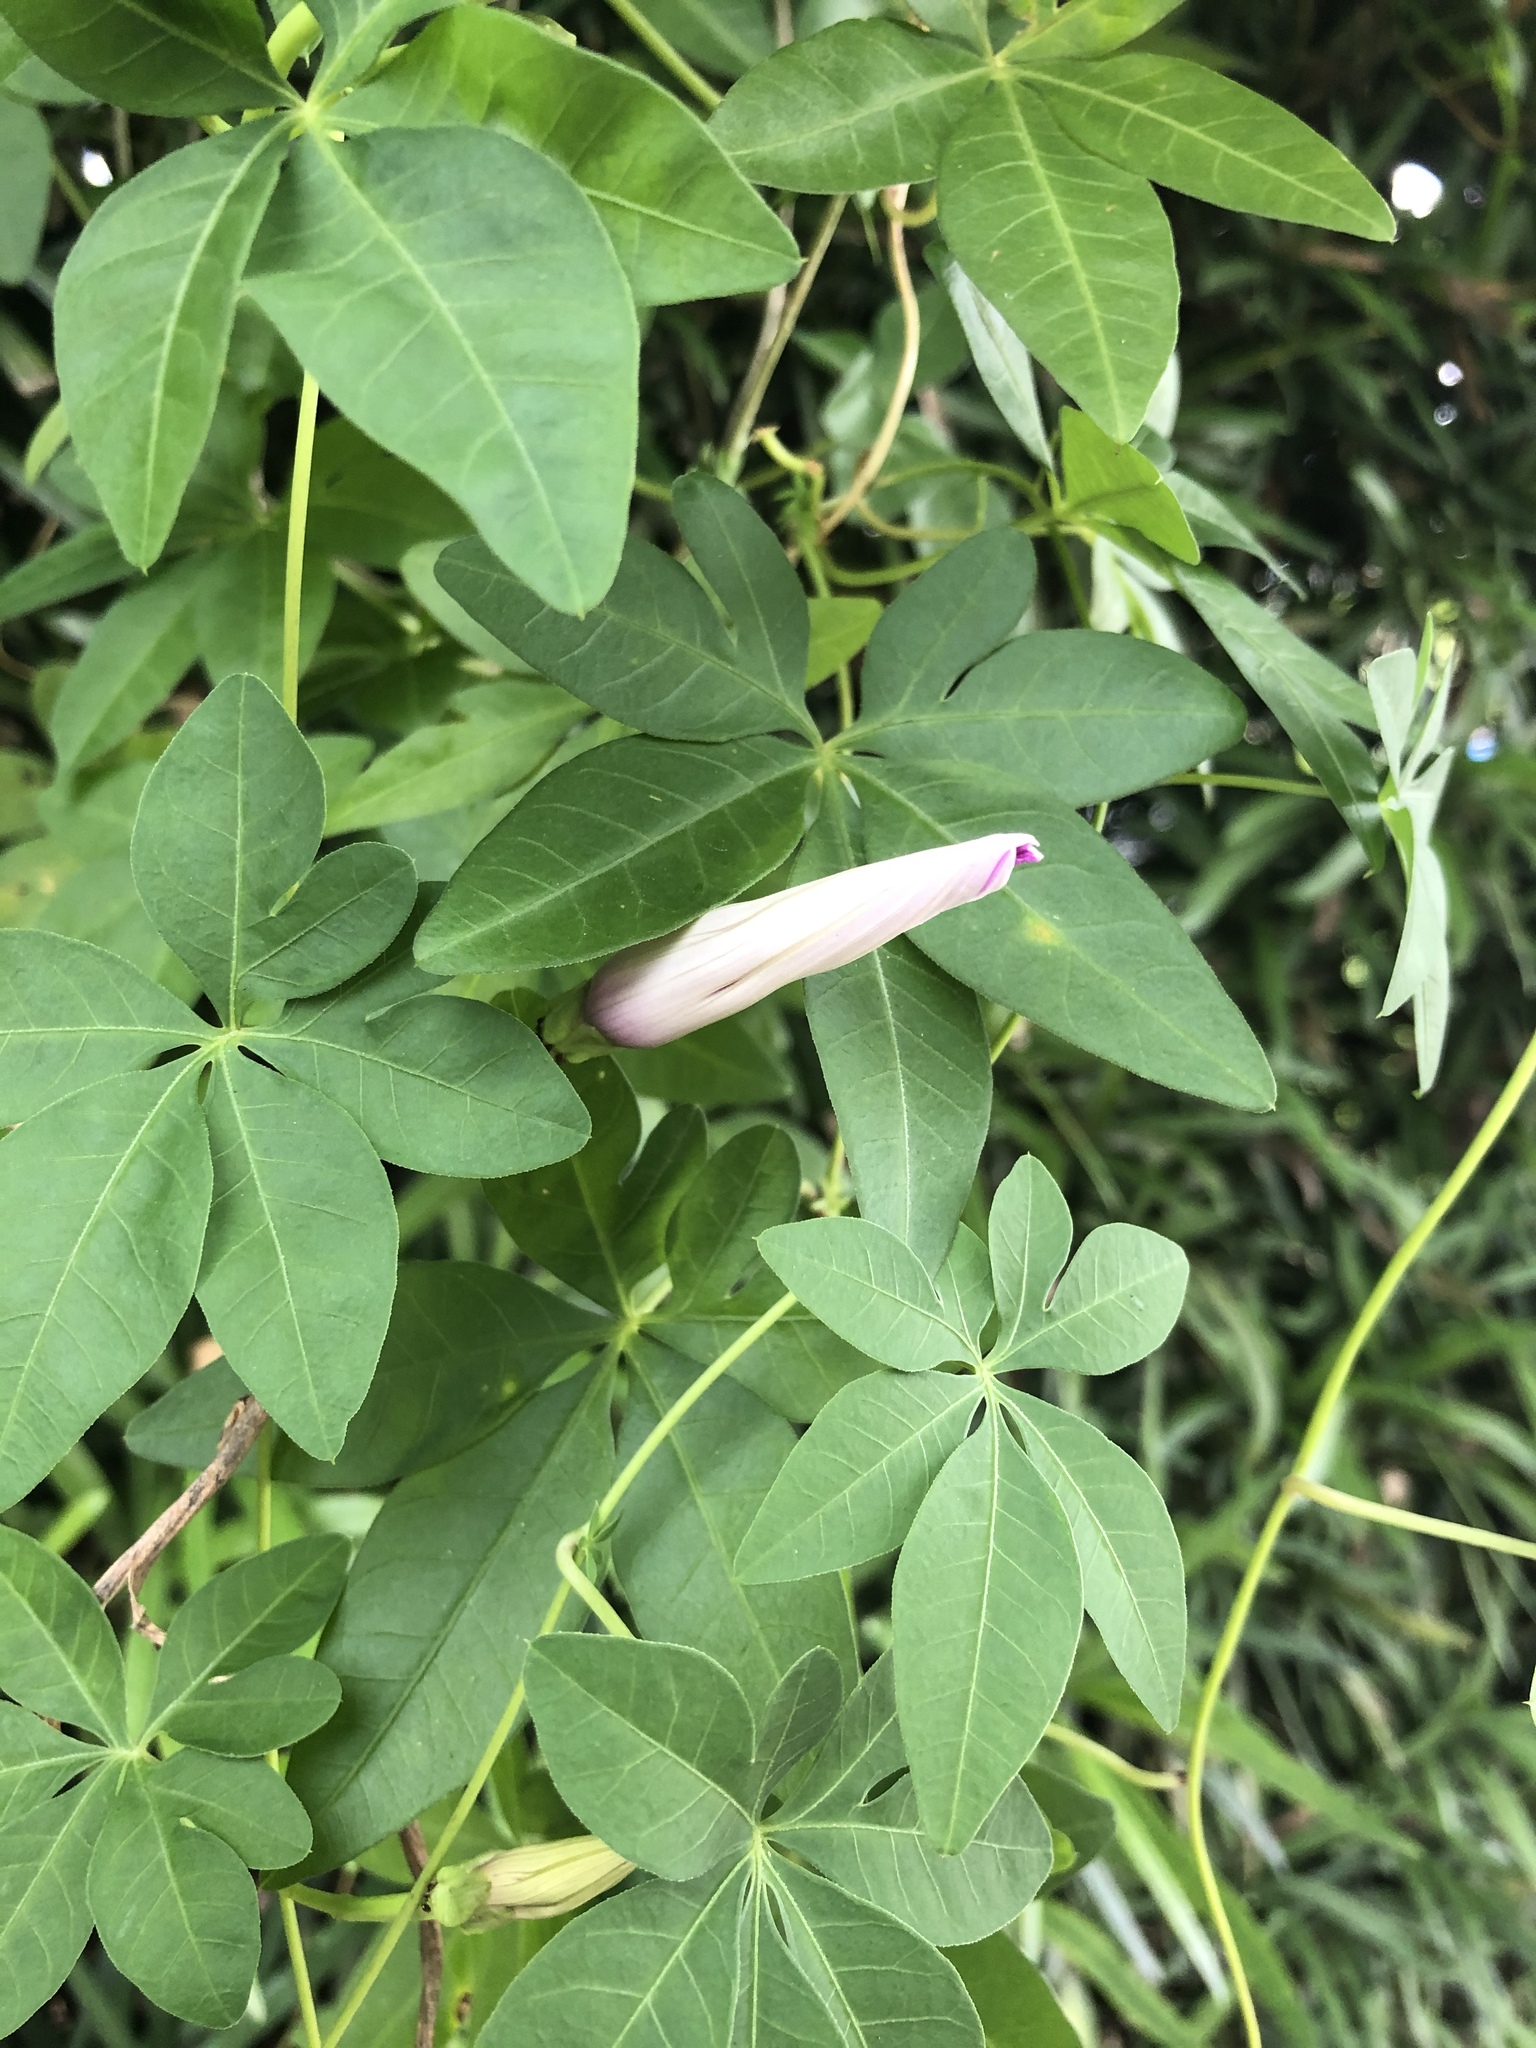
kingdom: Plantae
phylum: Tracheophyta
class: Magnoliopsida
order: Solanales
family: Convolvulaceae
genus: Ipomoea
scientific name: Ipomoea cairica
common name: Mile a minute vine
